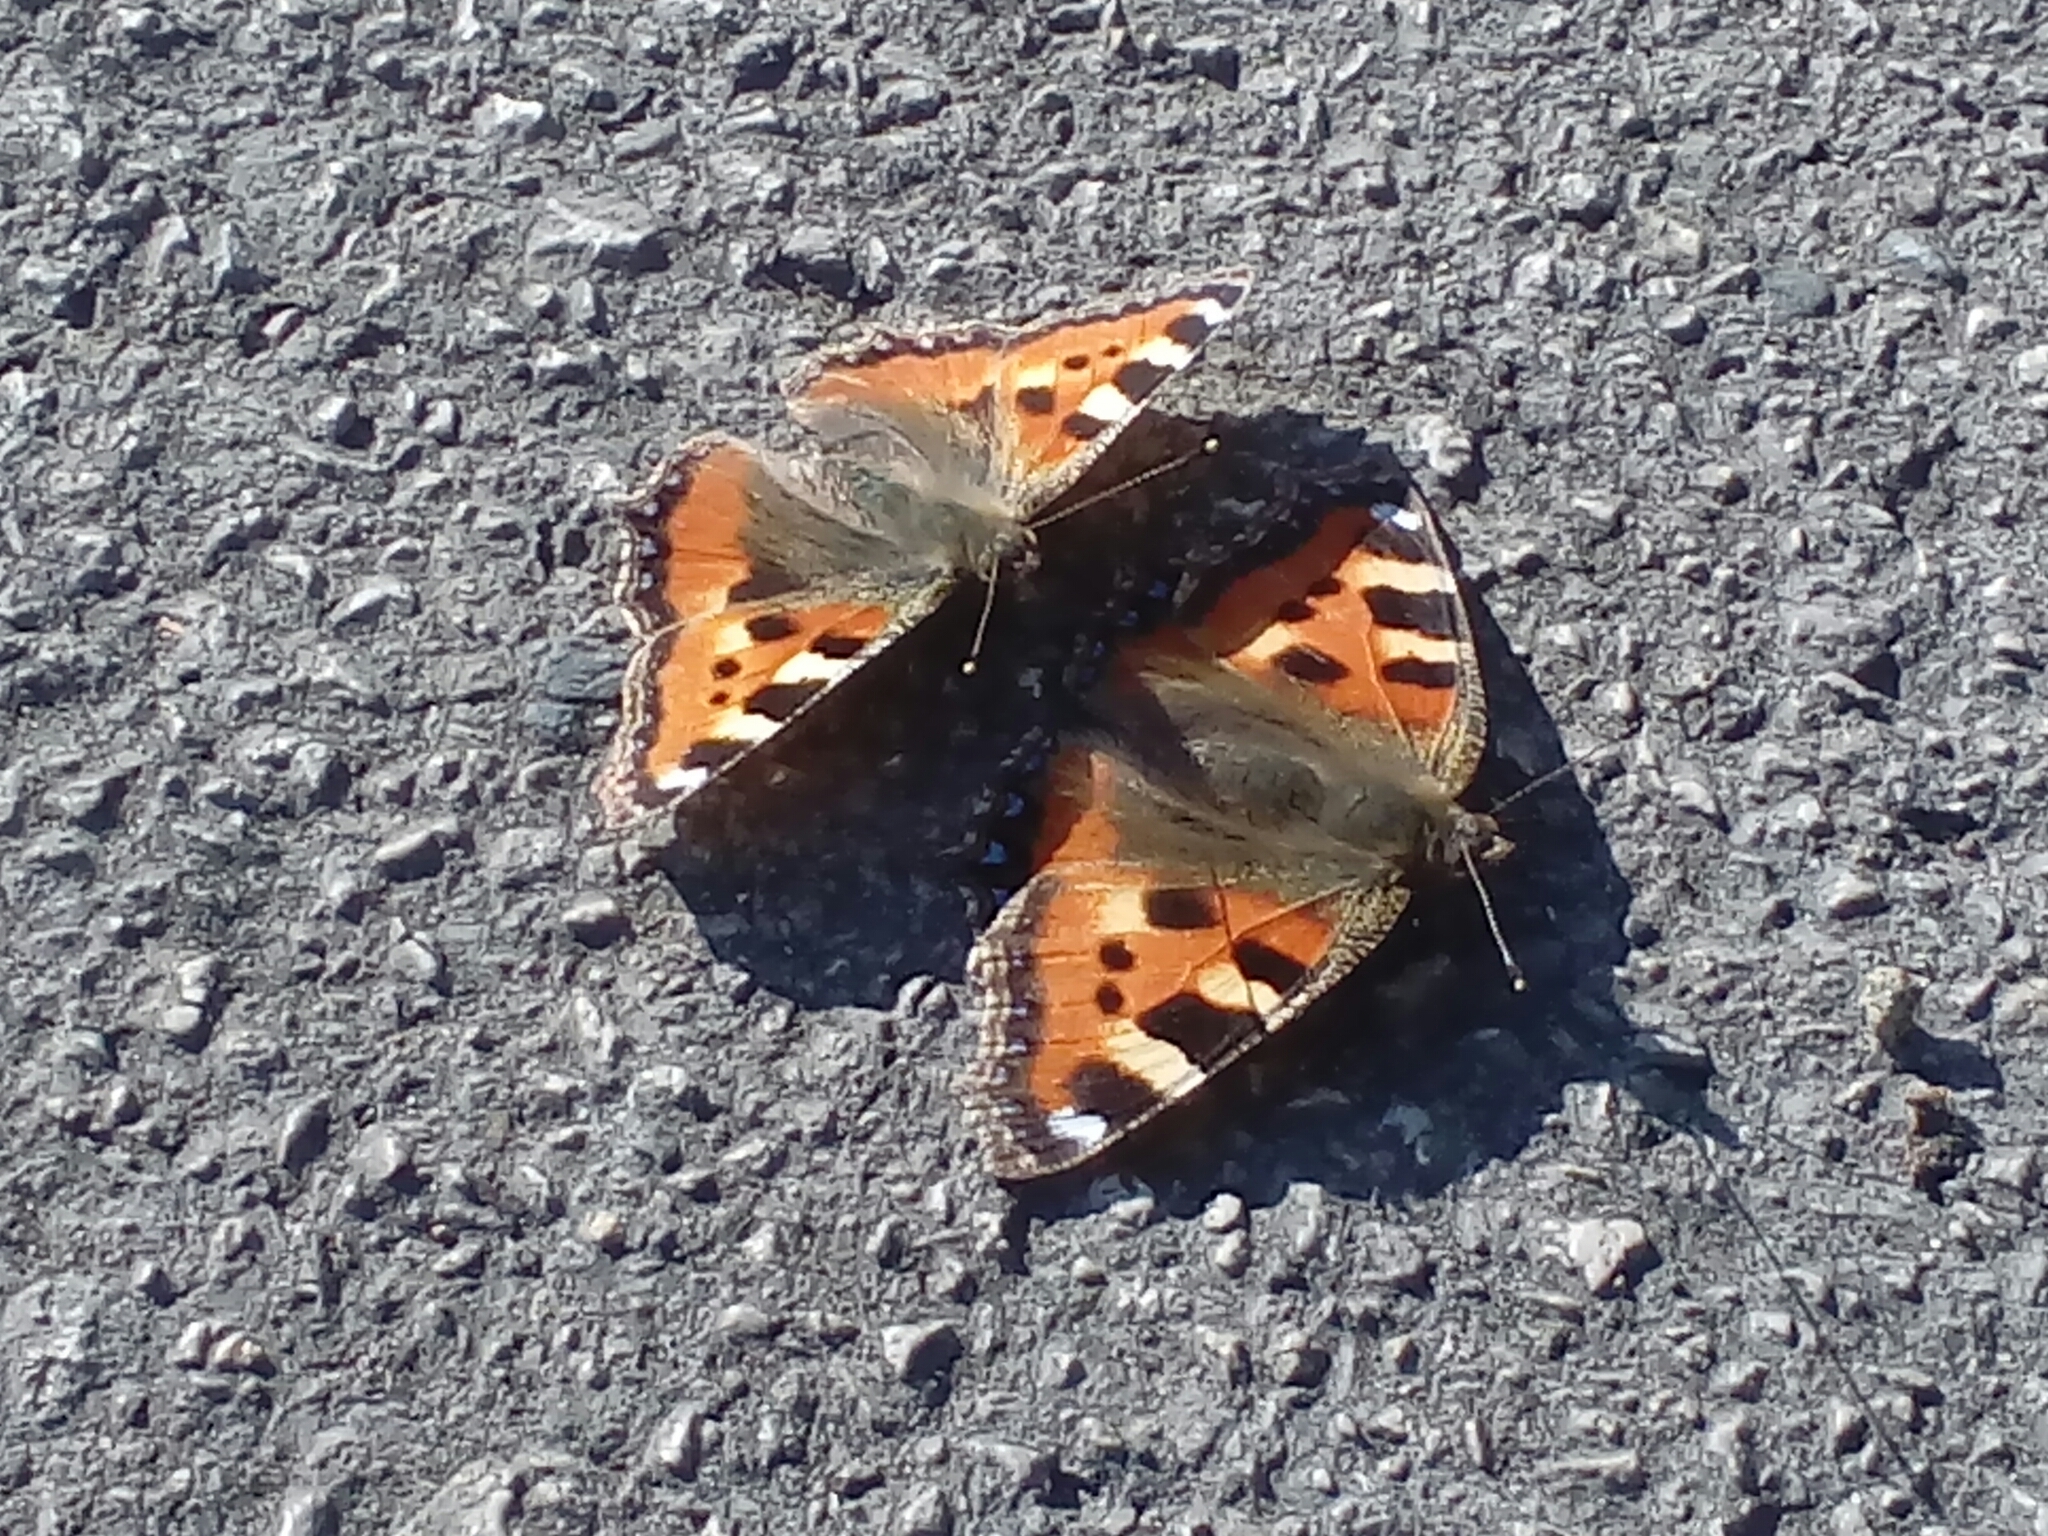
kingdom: Animalia
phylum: Arthropoda
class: Insecta
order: Lepidoptera
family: Nymphalidae
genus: Aglais
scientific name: Aglais urticae
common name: Small tortoiseshell
